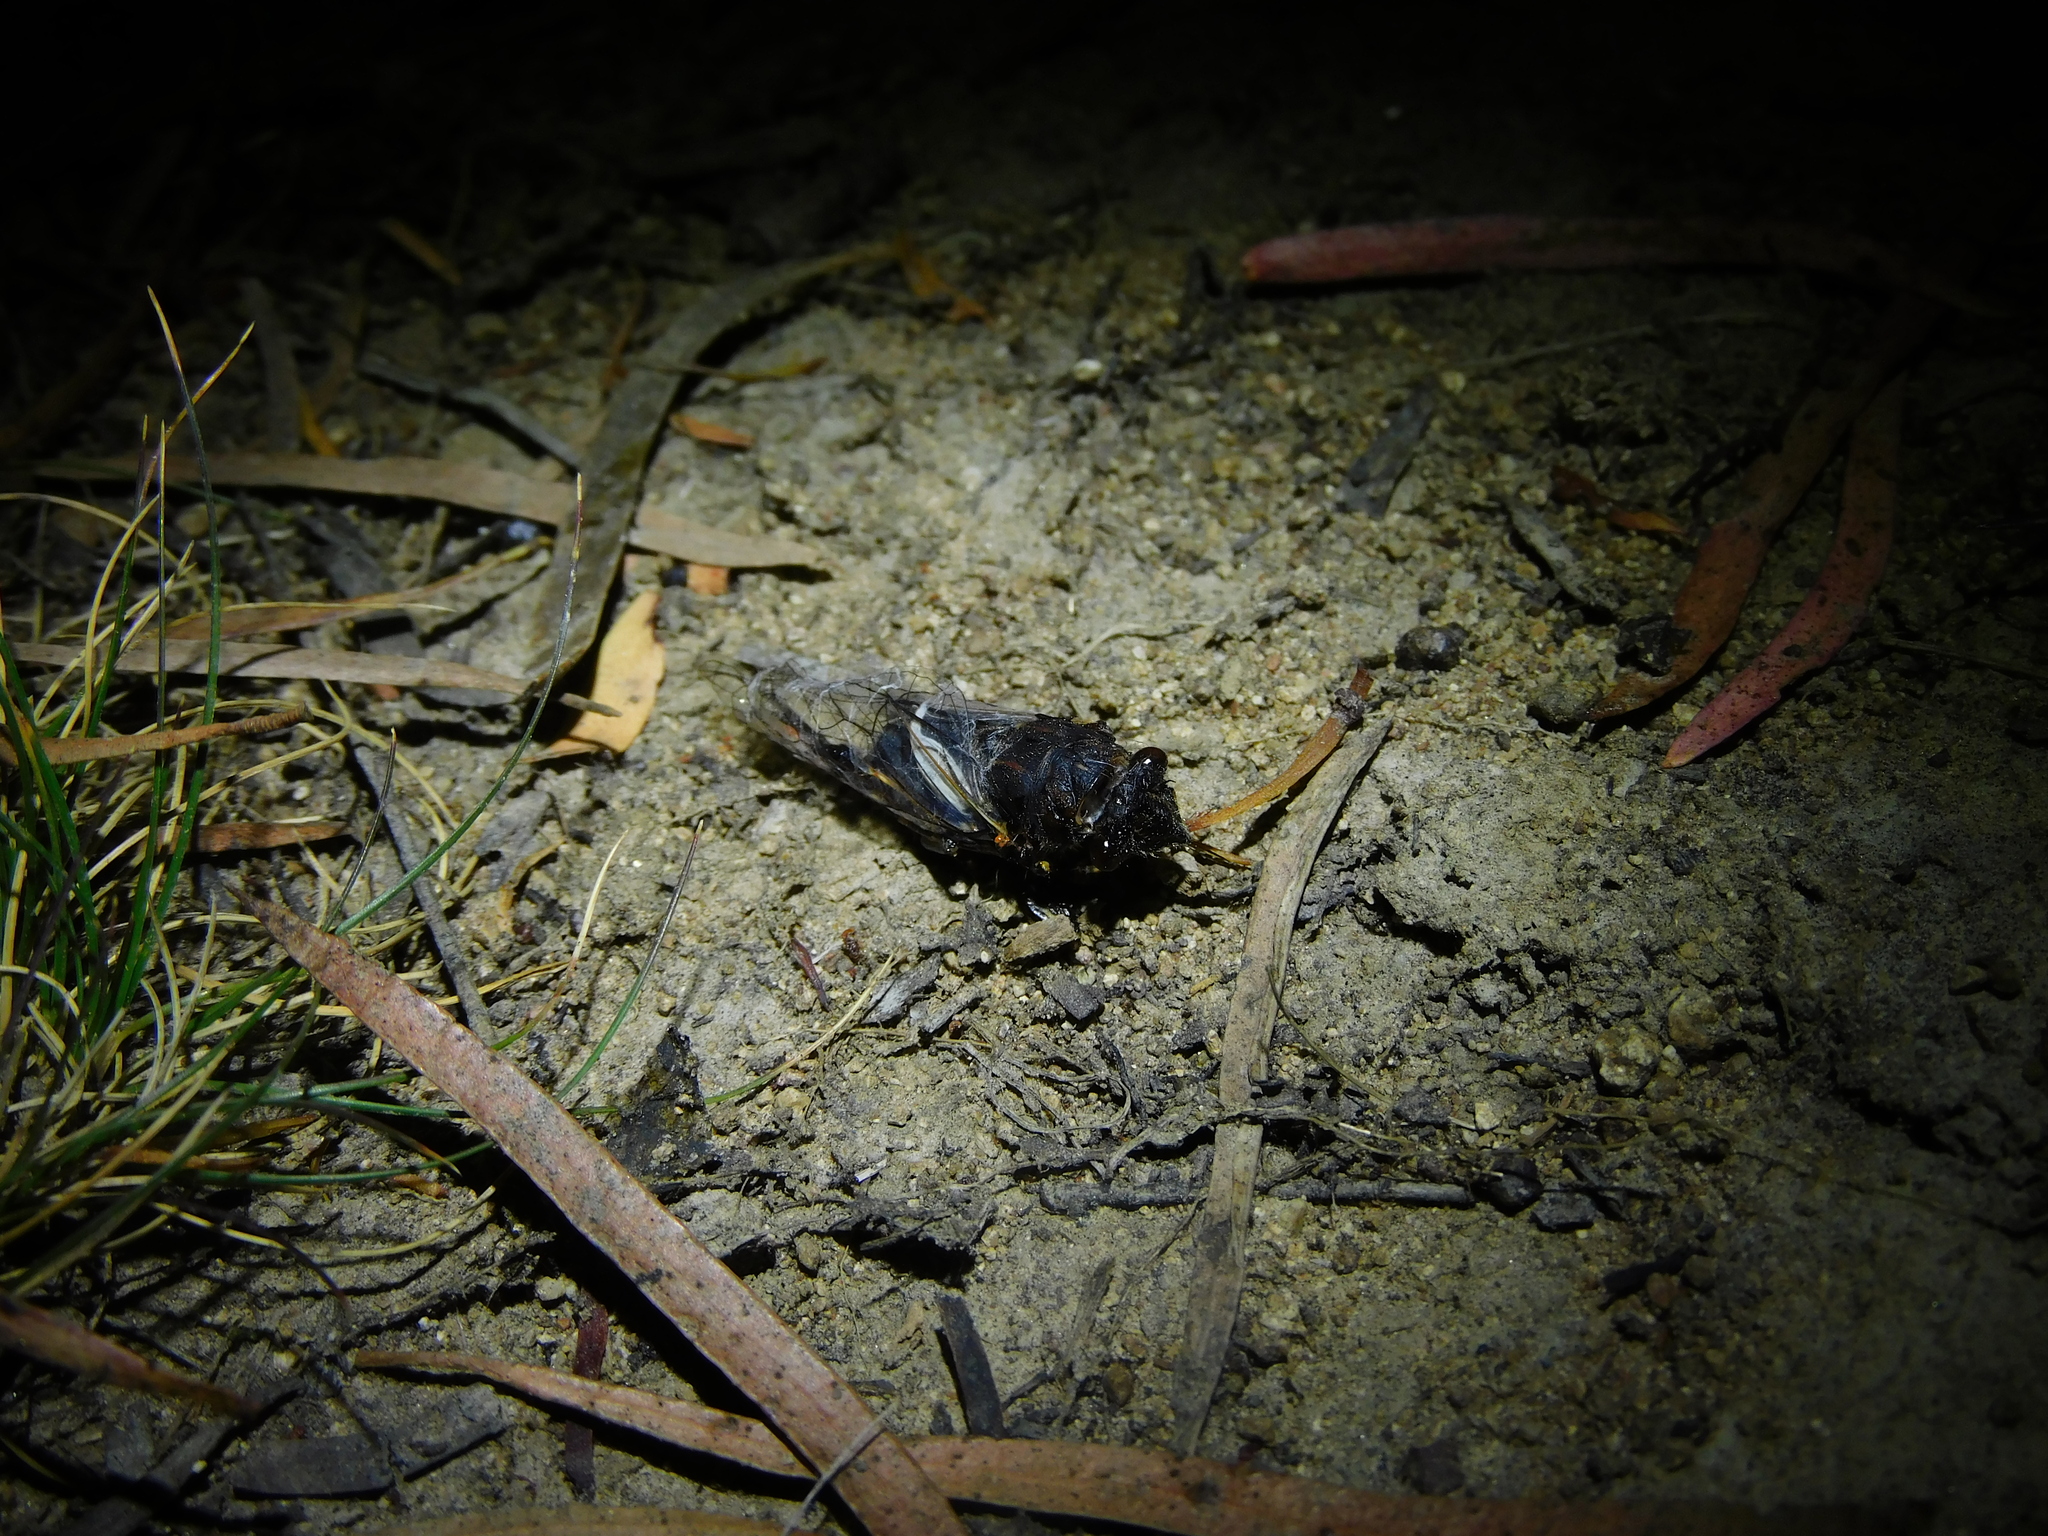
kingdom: Animalia
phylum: Arthropoda
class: Insecta
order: Hemiptera
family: Cicadidae
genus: Gelidea
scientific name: Gelidea torrida
